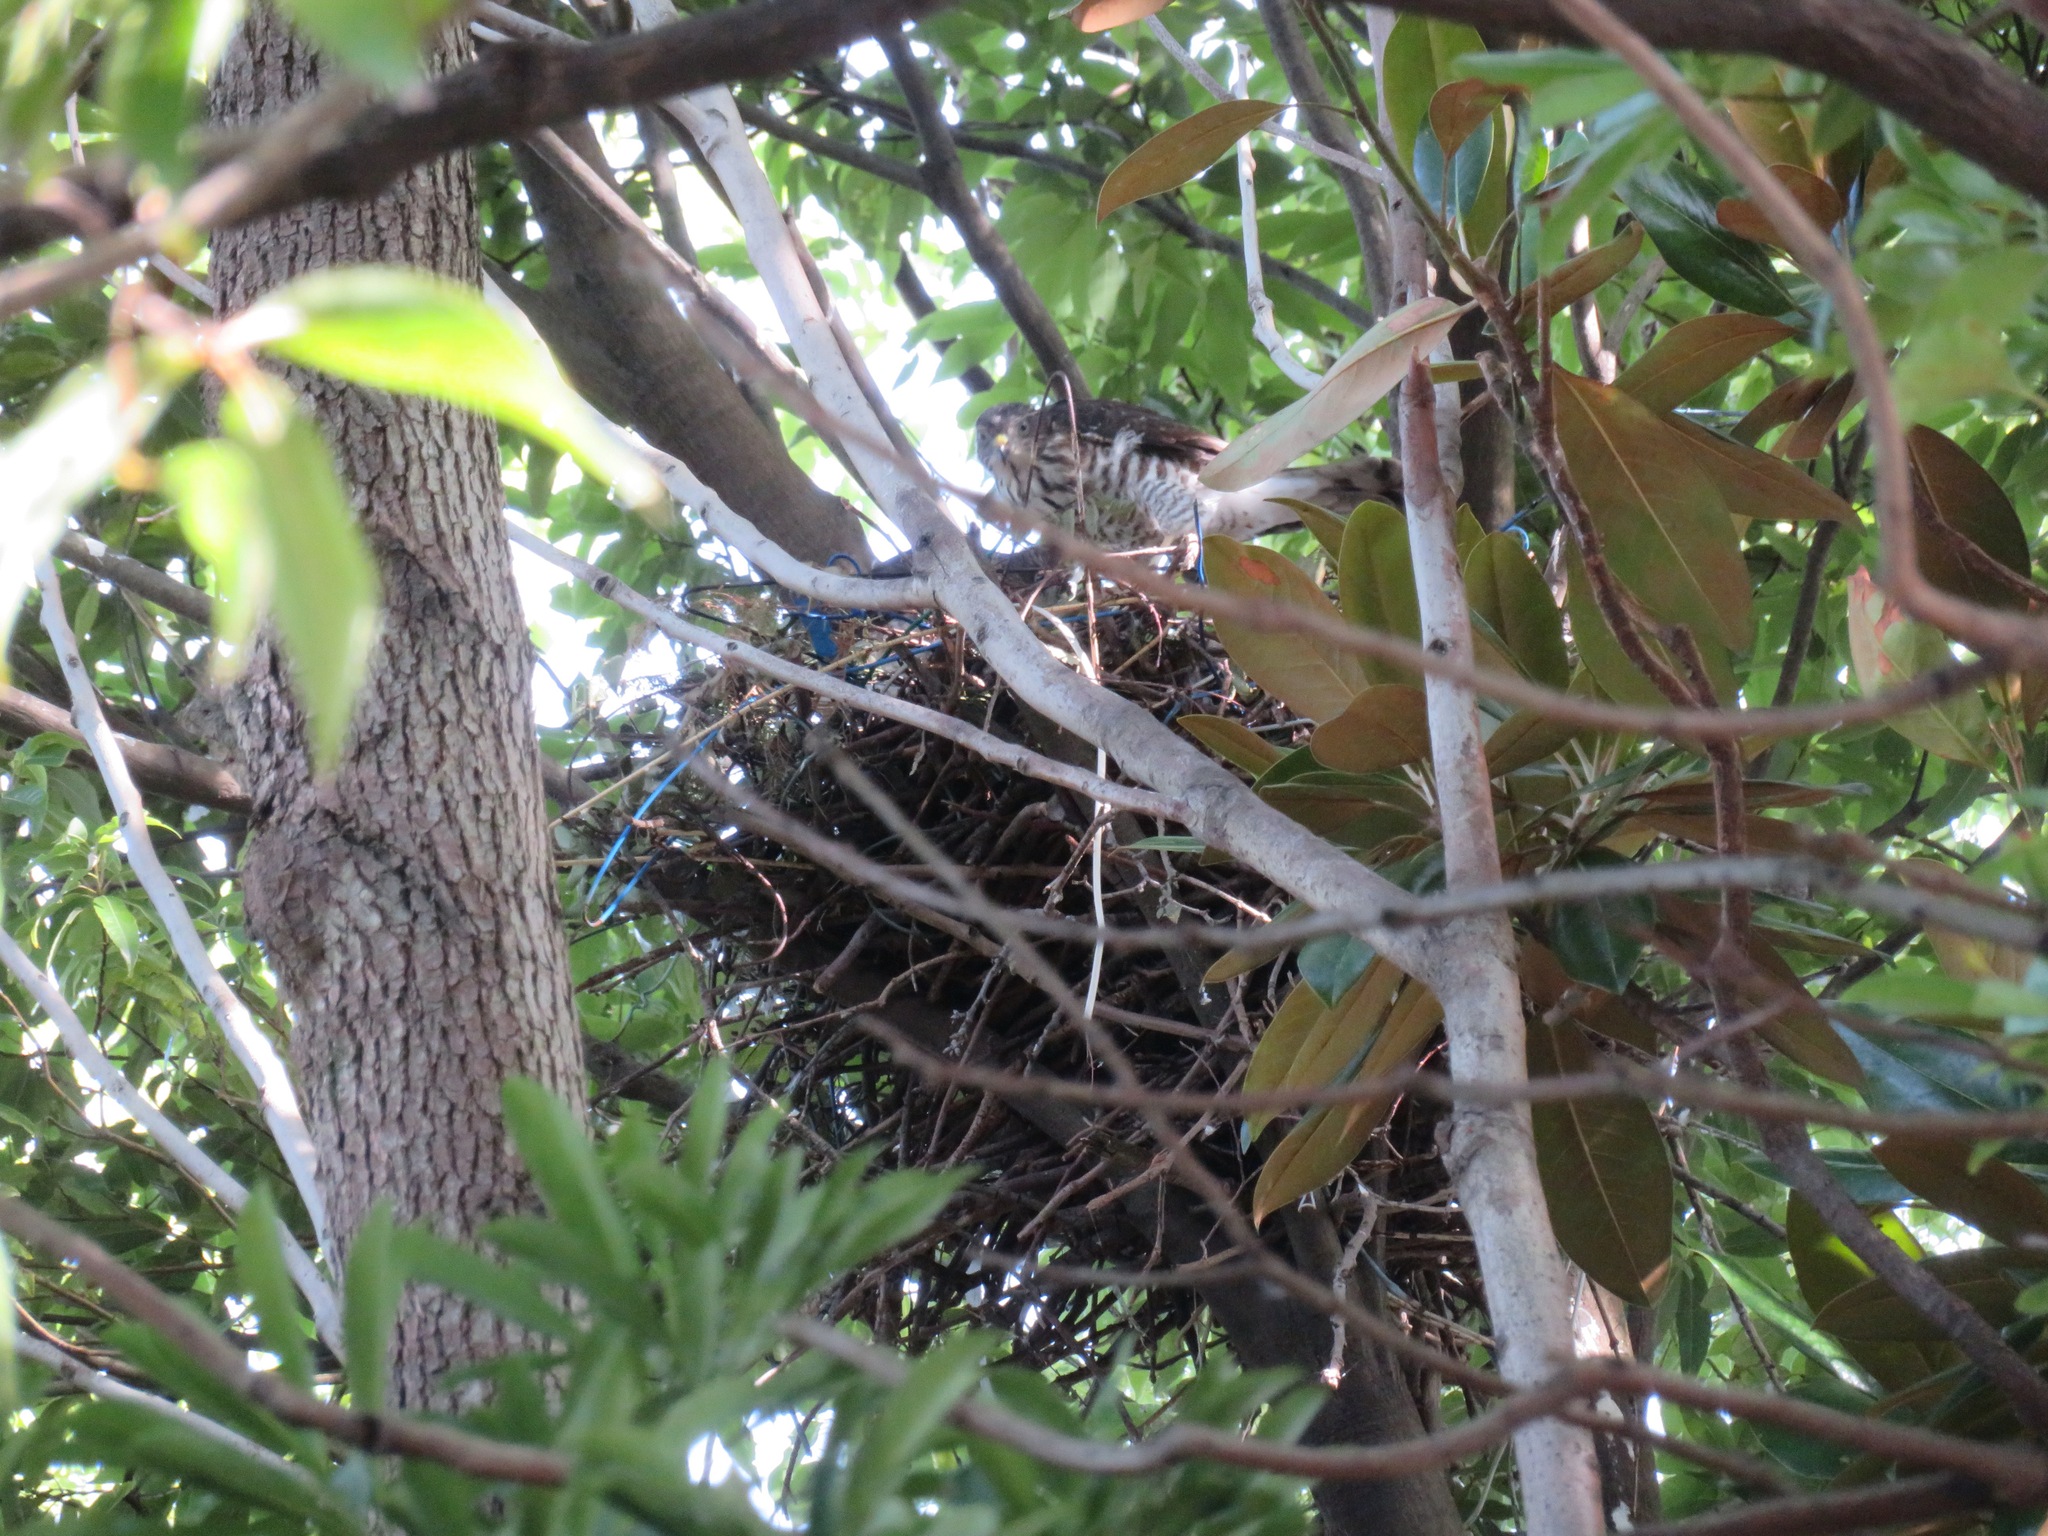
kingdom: Animalia
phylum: Chordata
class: Aves
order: Accipitriformes
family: Accipitridae
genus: Accipiter
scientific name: Accipiter gularis
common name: Japanese sparrowhawk
